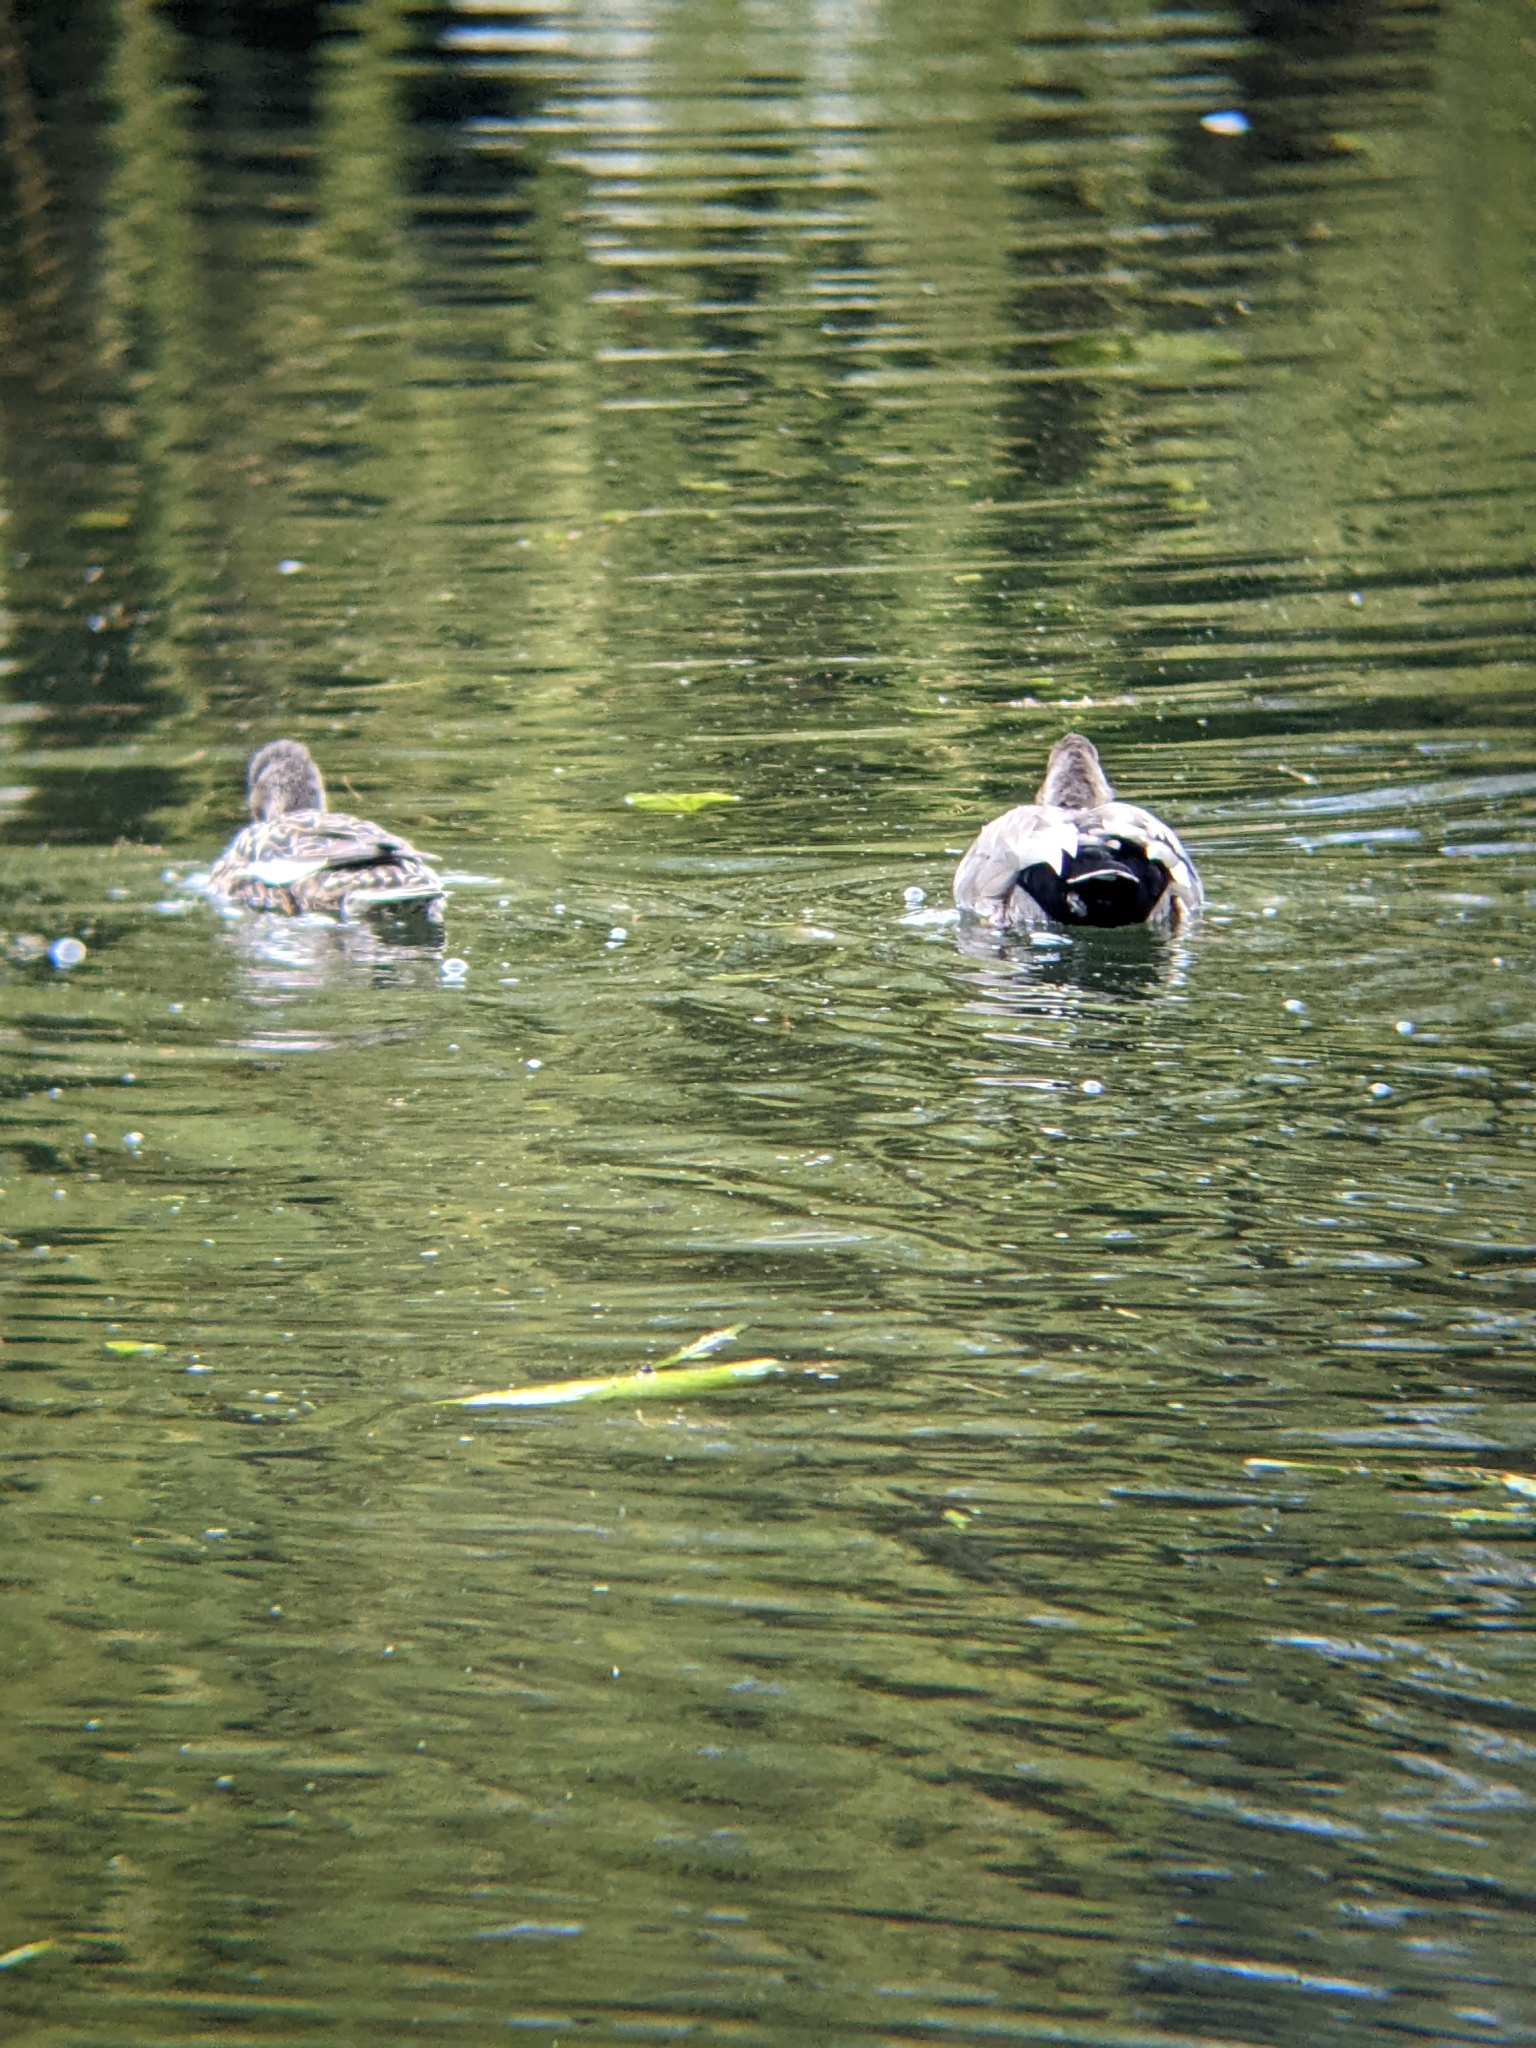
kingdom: Animalia
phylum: Chordata
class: Aves
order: Anseriformes
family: Anatidae
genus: Mareca
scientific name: Mareca strepera
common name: Gadwall
